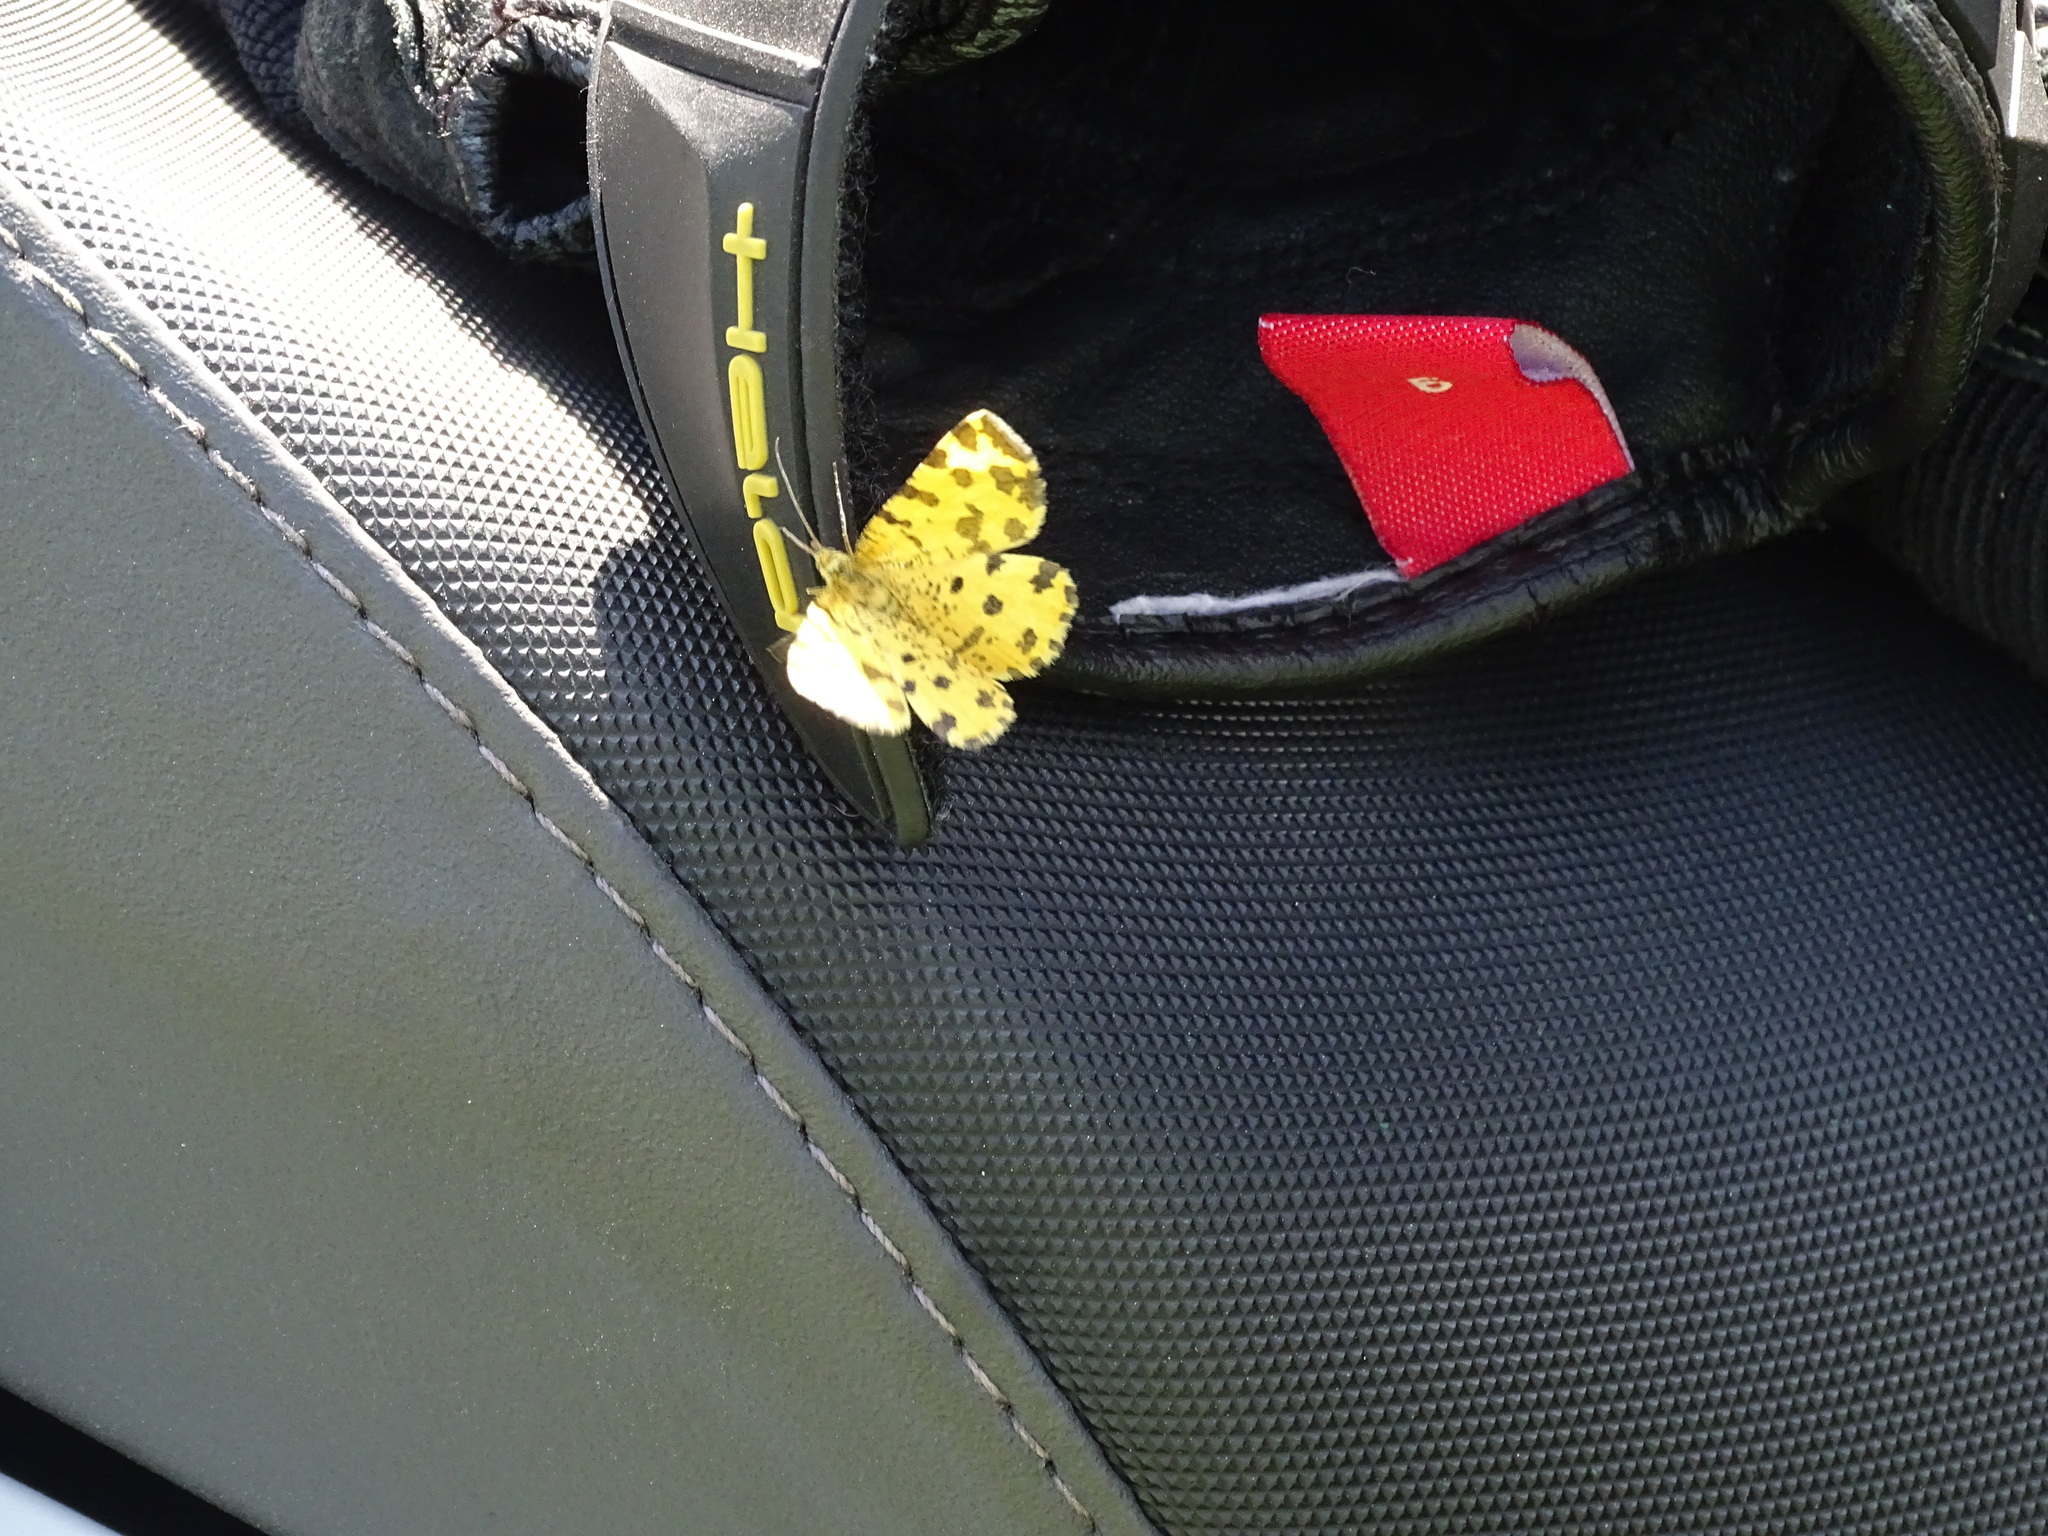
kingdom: Animalia
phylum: Arthropoda
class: Insecta
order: Lepidoptera
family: Geometridae
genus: Pseudopanthera
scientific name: Pseudopanthera macularia
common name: Speckled yellow
